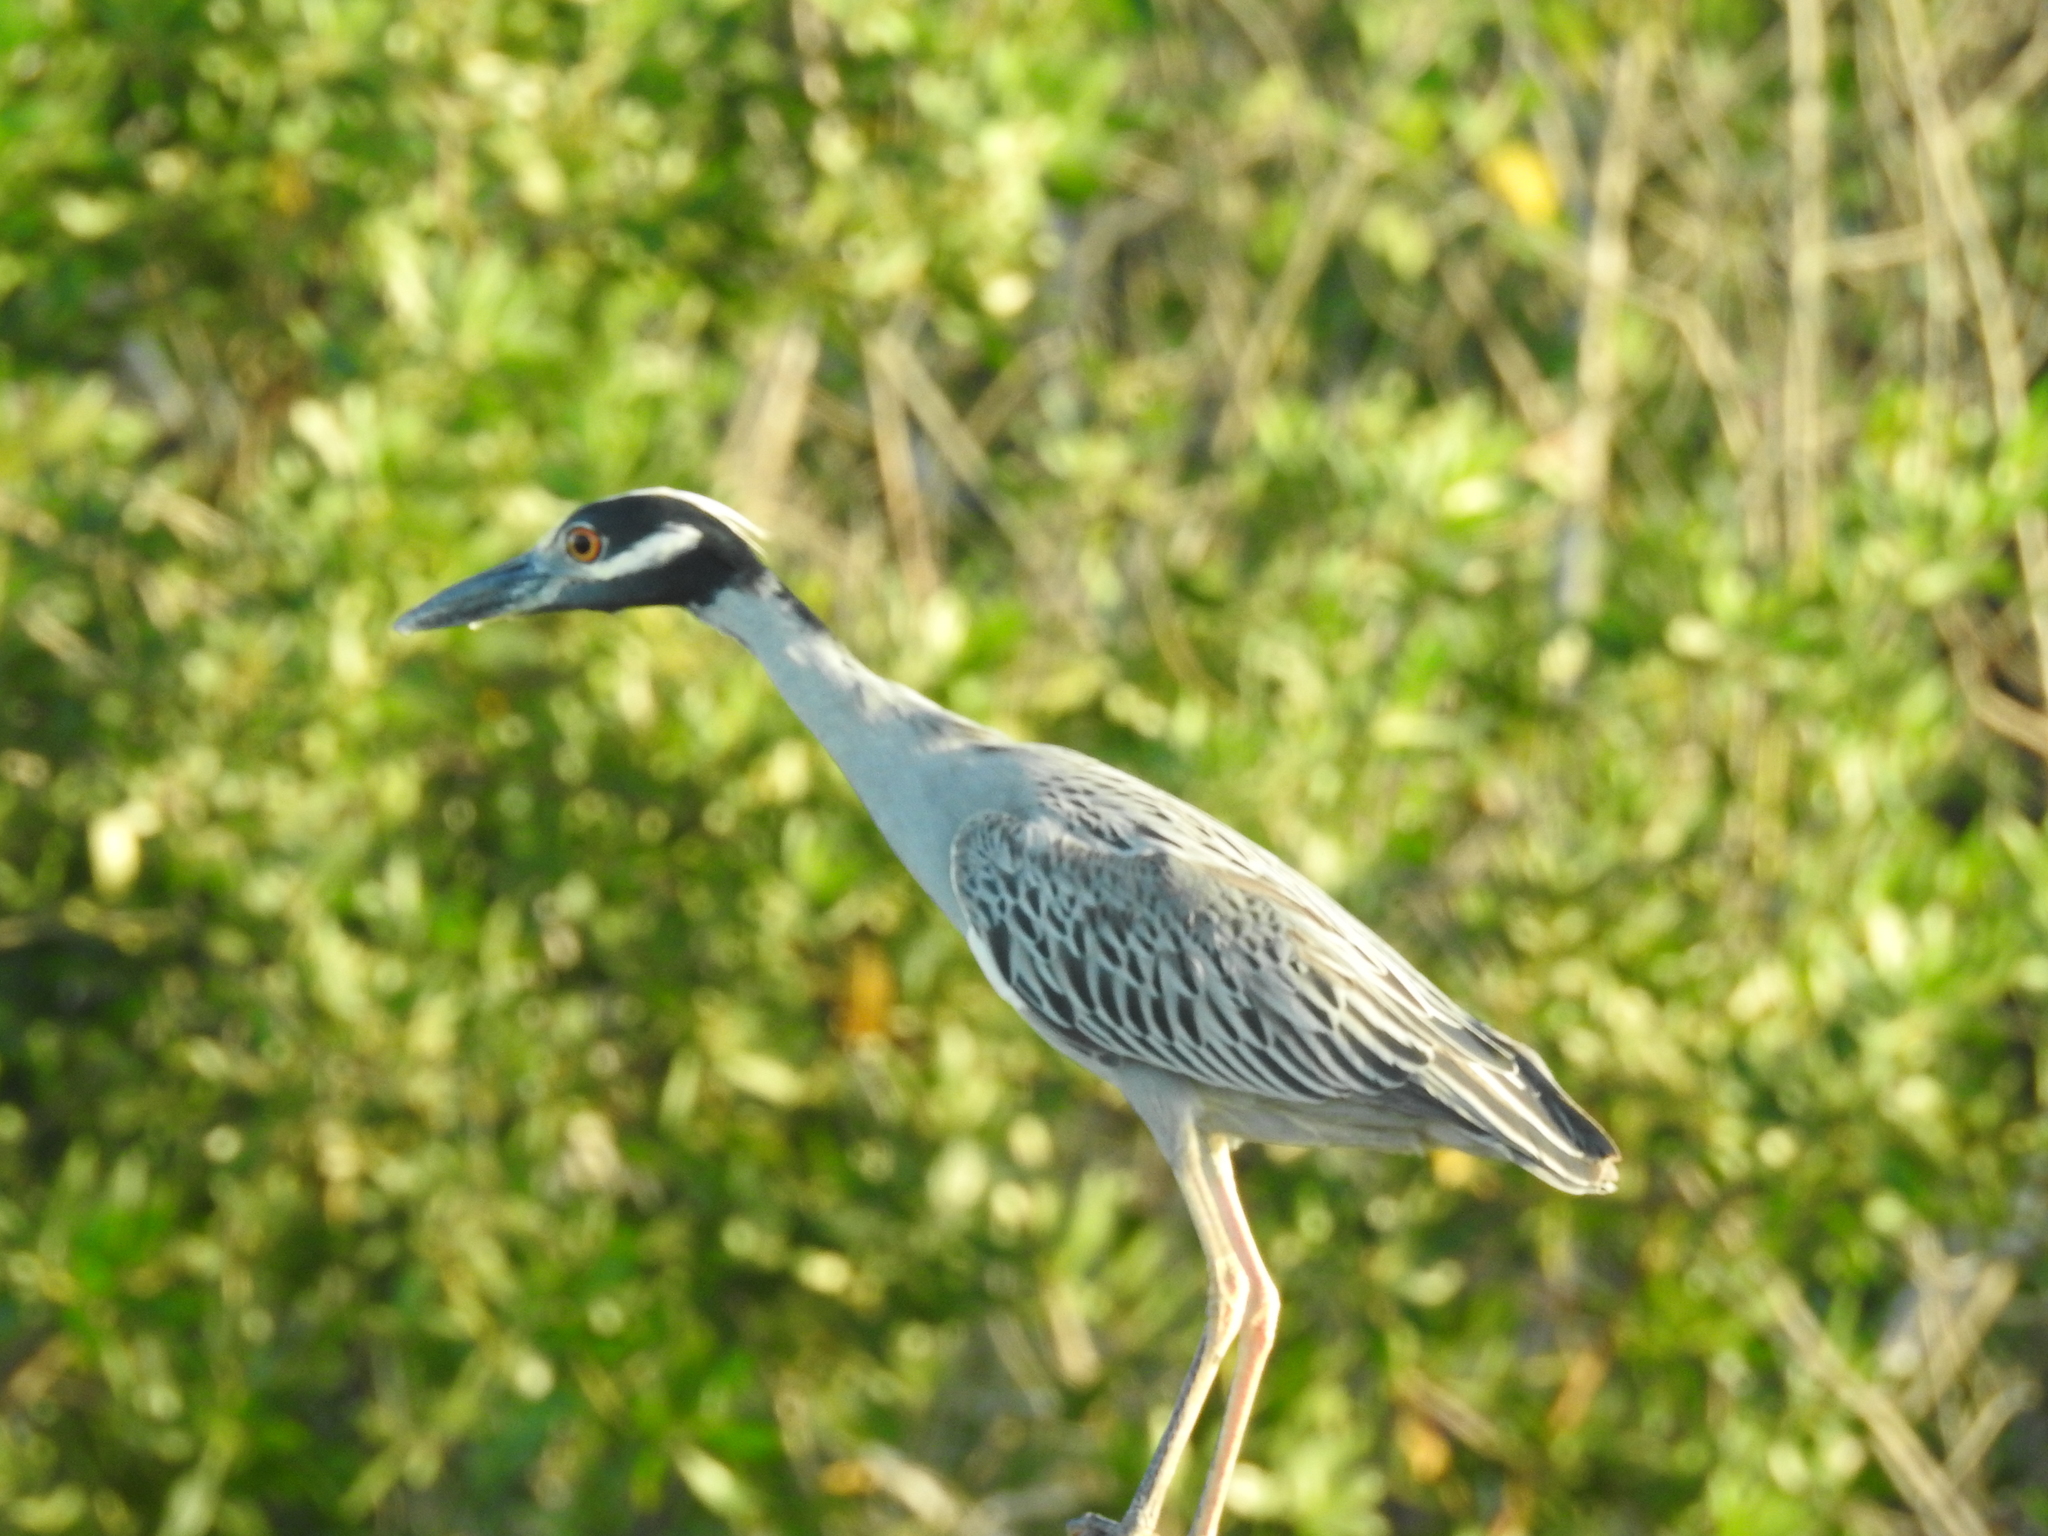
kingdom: Animalia
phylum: Chordata
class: Aves
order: Pelecaniformes
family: Ardeidae
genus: Nyctanassa
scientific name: Nyctanassa violacea
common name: Yellow-crowned night heron
